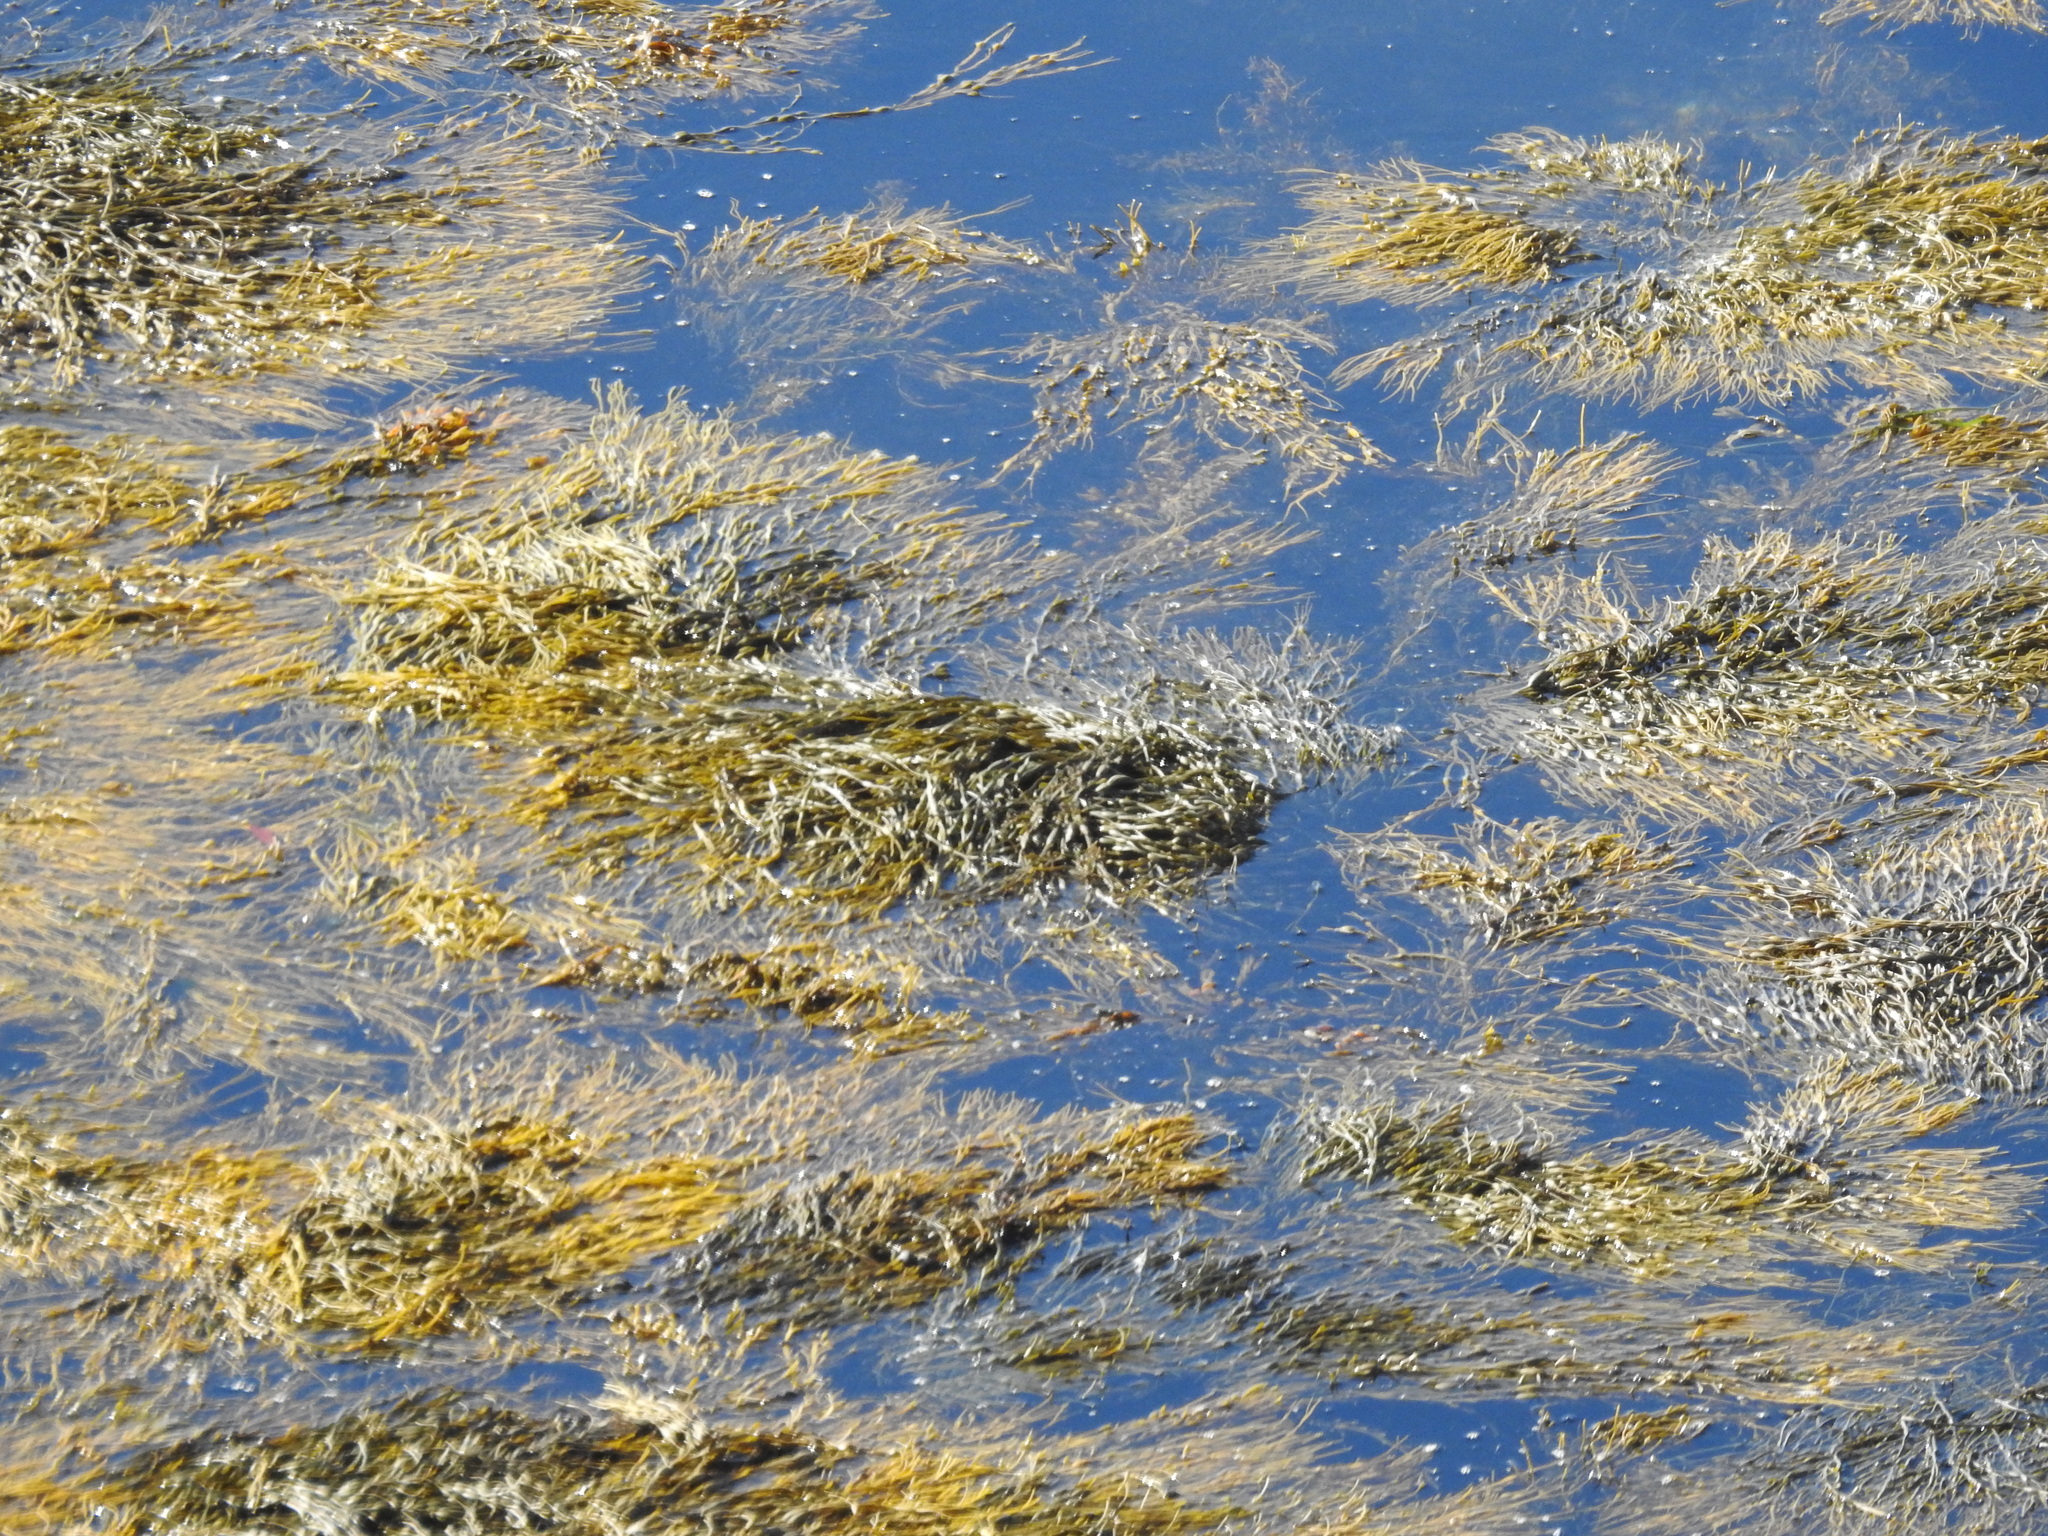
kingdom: Chromista
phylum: Ochrophyta
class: Phaeophyceae
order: Fucales
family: Fucaceae
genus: Ascophyllum
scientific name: Ascophyllum nodosum
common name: Knotted wrack
